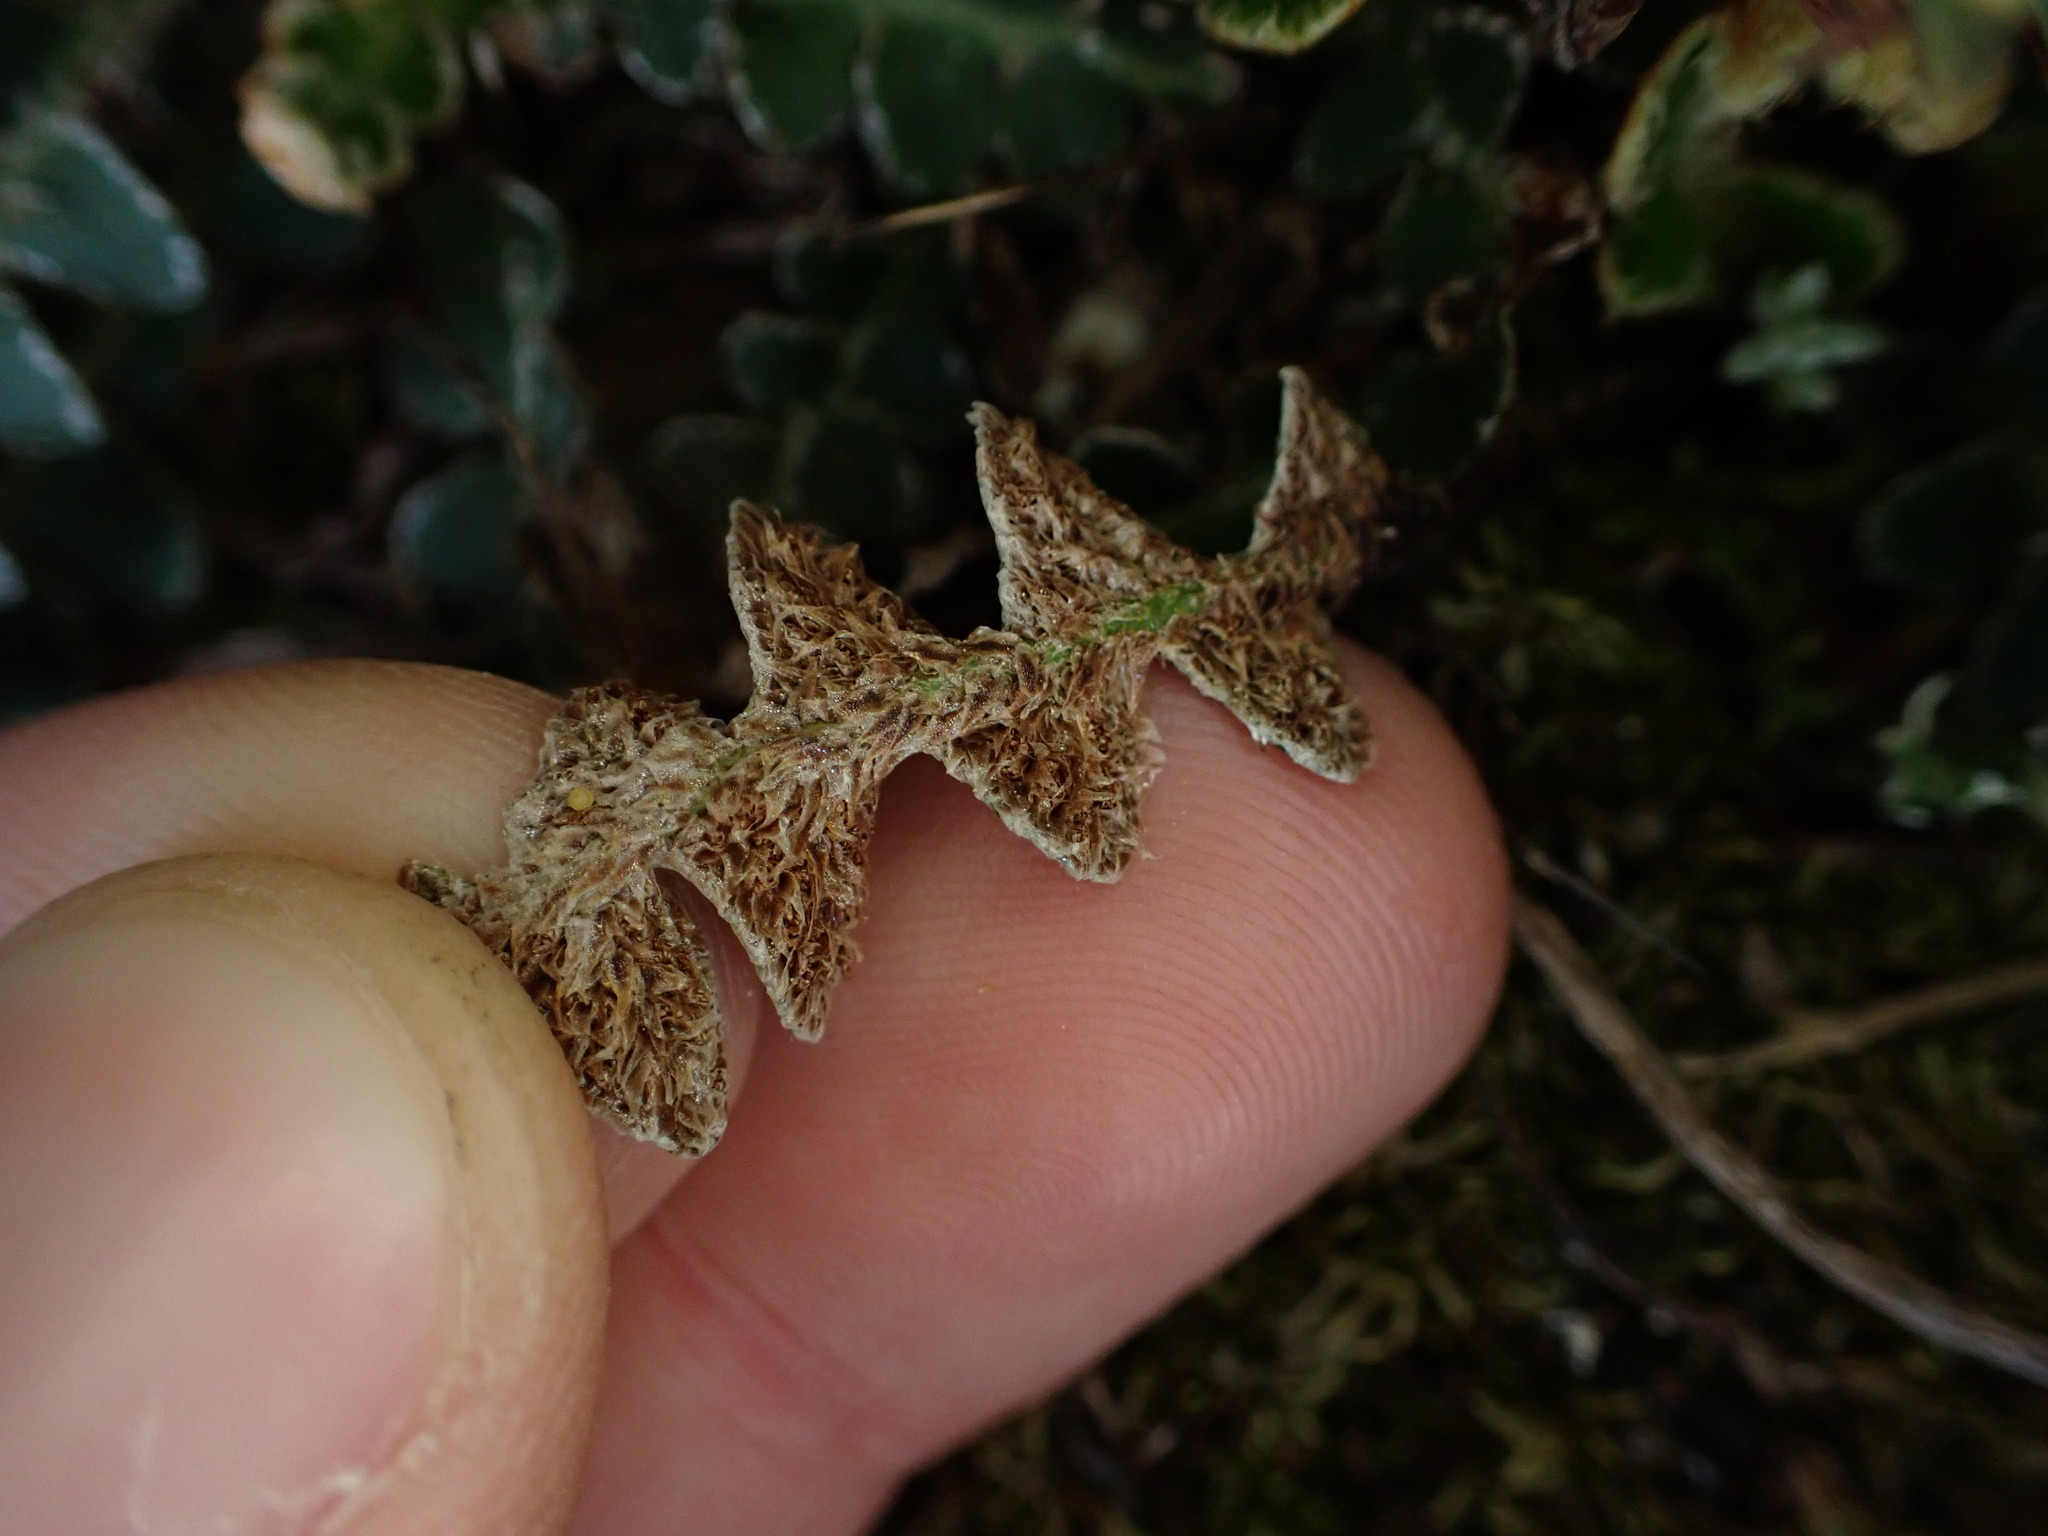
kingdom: Plantae
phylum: Tracheophyta
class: Polypodiopsida
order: Polypodiales
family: Aspleniaceae
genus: Asplenium
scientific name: Asplenium ceterach
